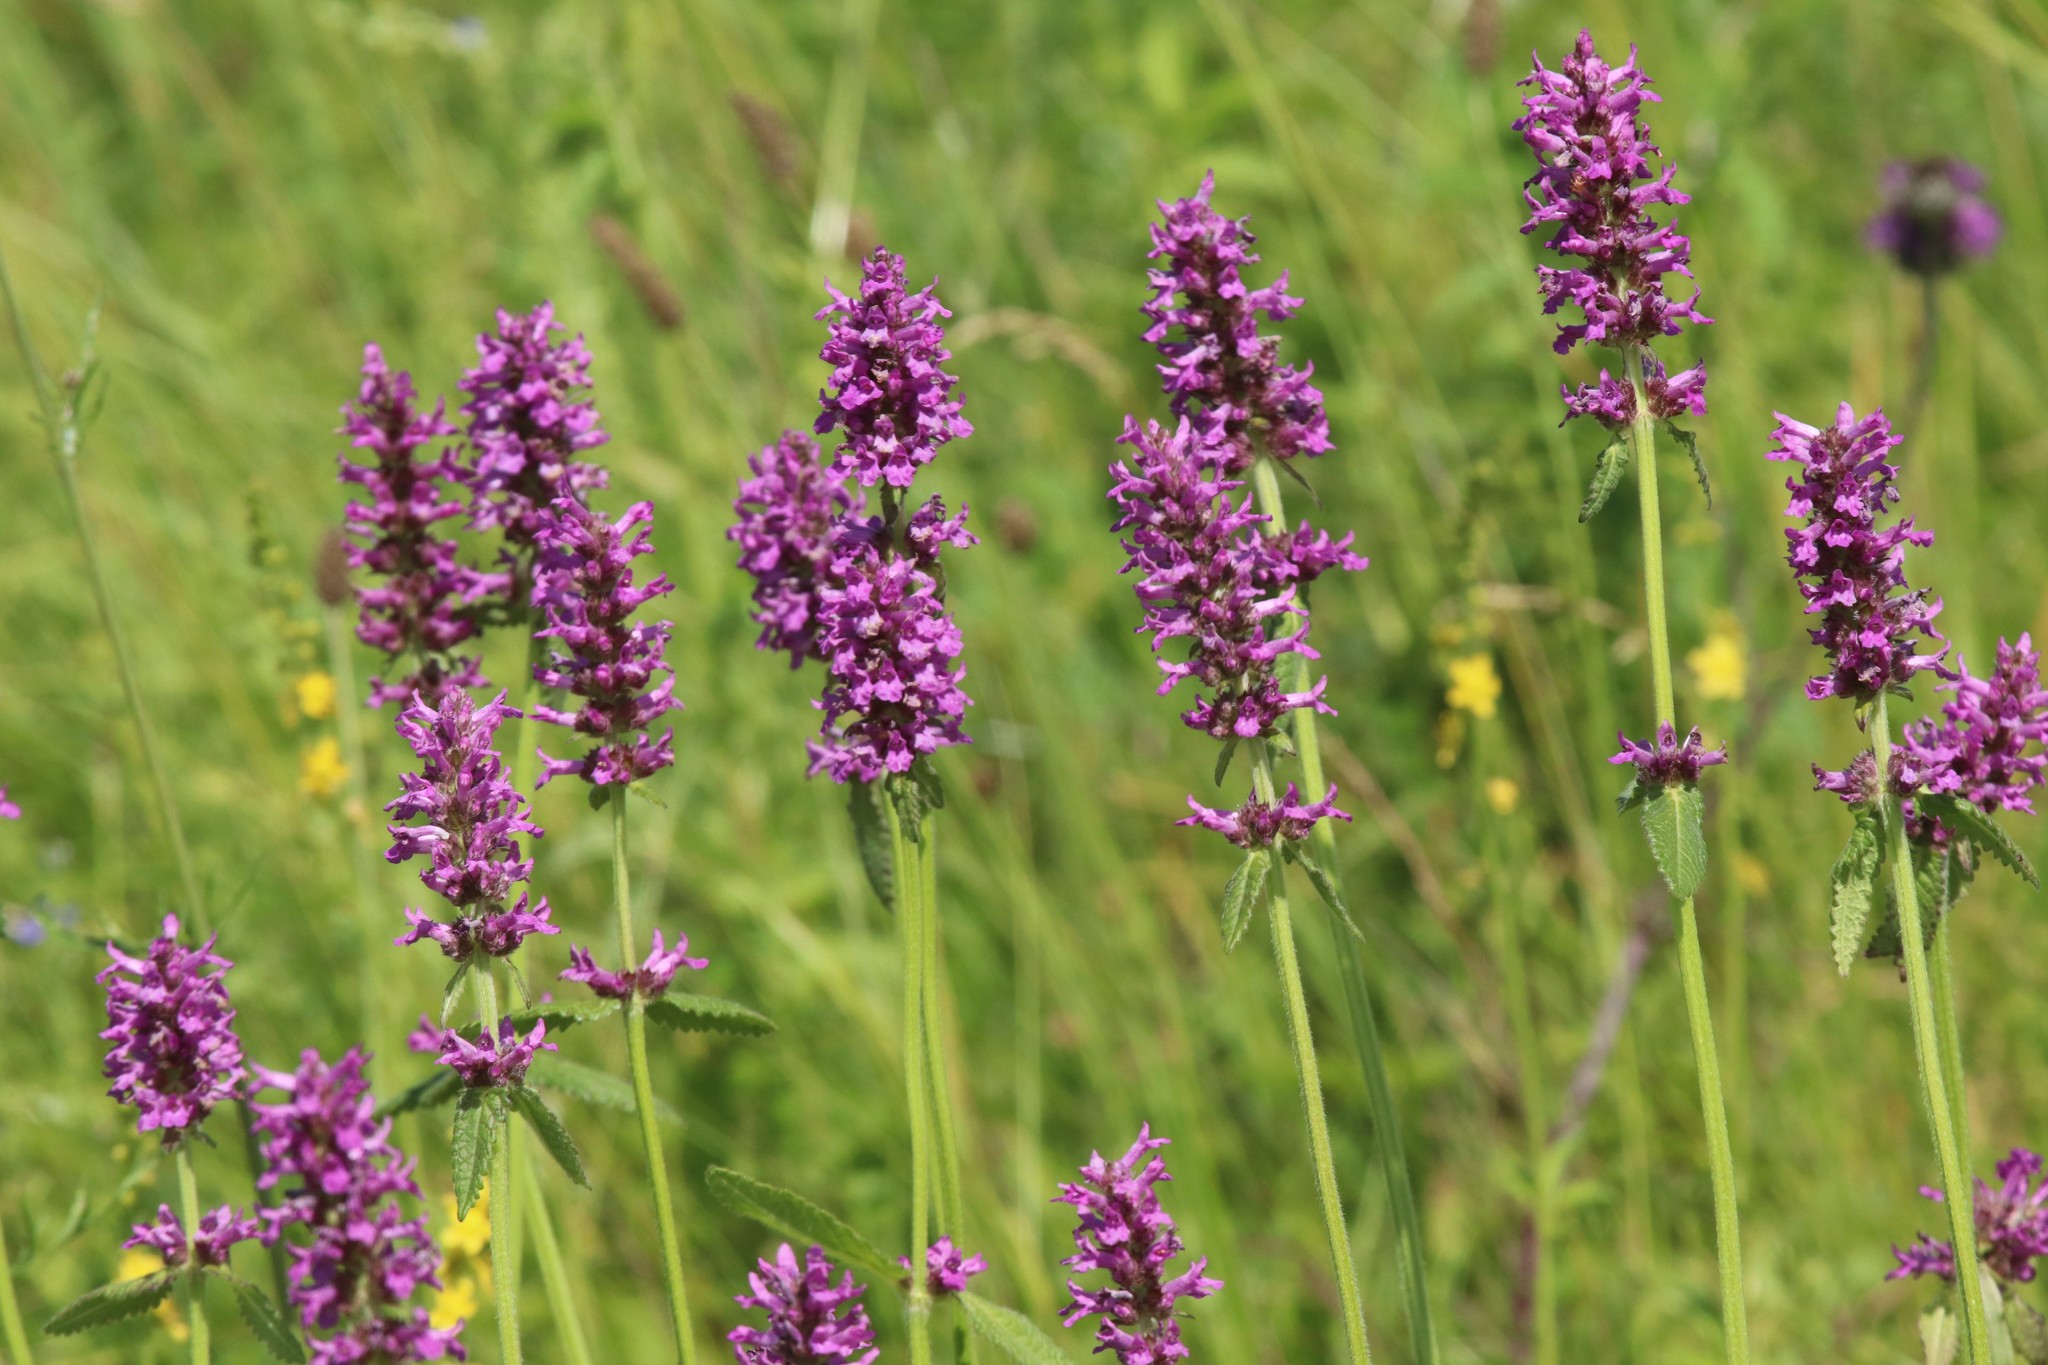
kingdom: Plantae
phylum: Tracheophyta
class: Magnoliopsida
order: Lamiales
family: Lamiaceae
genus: Betonica
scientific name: Betonica officinalis
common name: Bishop's-wort
